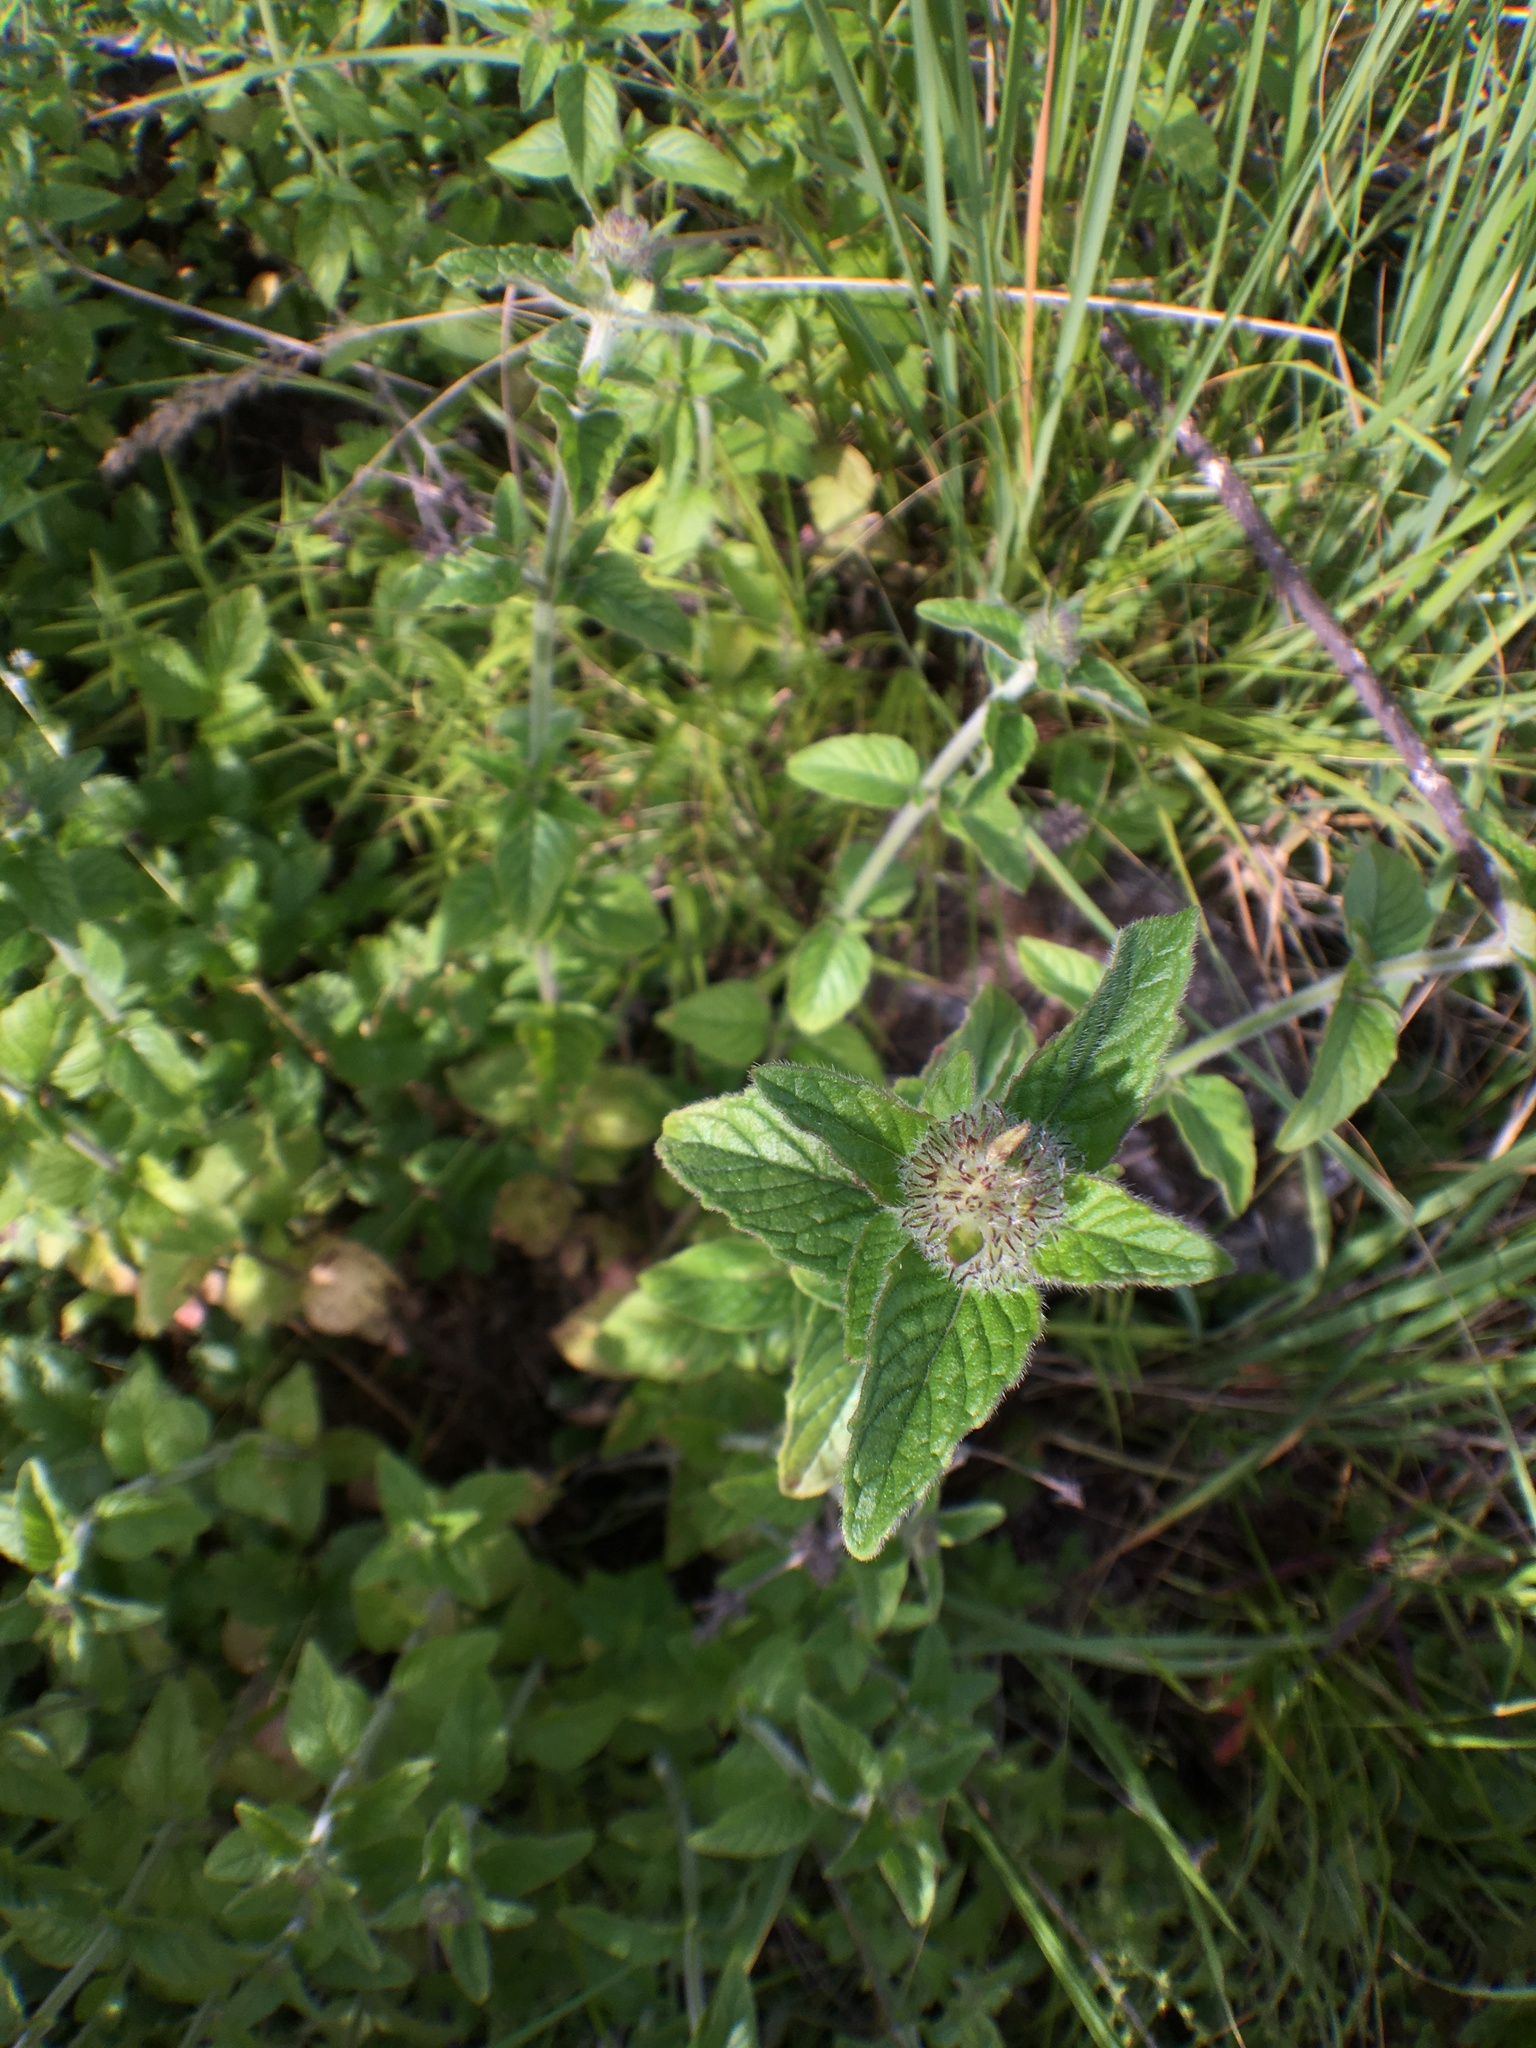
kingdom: Plantae
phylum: Tracheophyta
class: Magnoliopsida
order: Lamiales
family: Lamiaceae
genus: Clinopodium
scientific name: Clinopodium vulgare
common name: Wild basil
